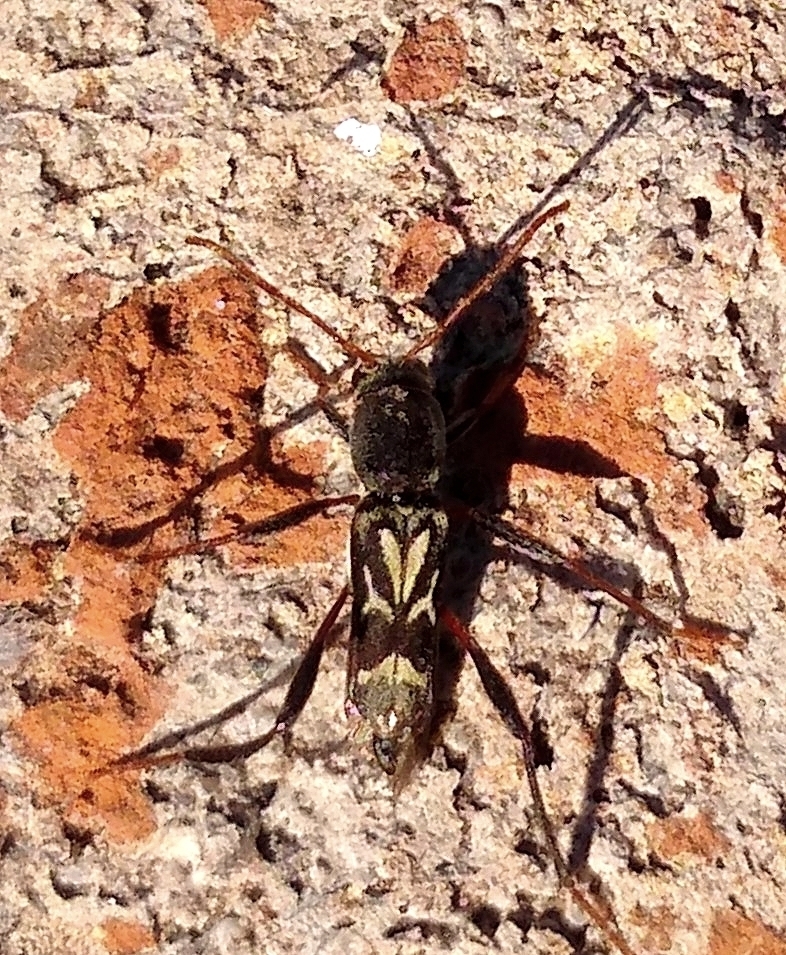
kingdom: Animalia
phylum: Arthropoda
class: Insecta
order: Coleoptera
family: Cerambycidae
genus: Neoclytus
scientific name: Neoclytus ypsilon
